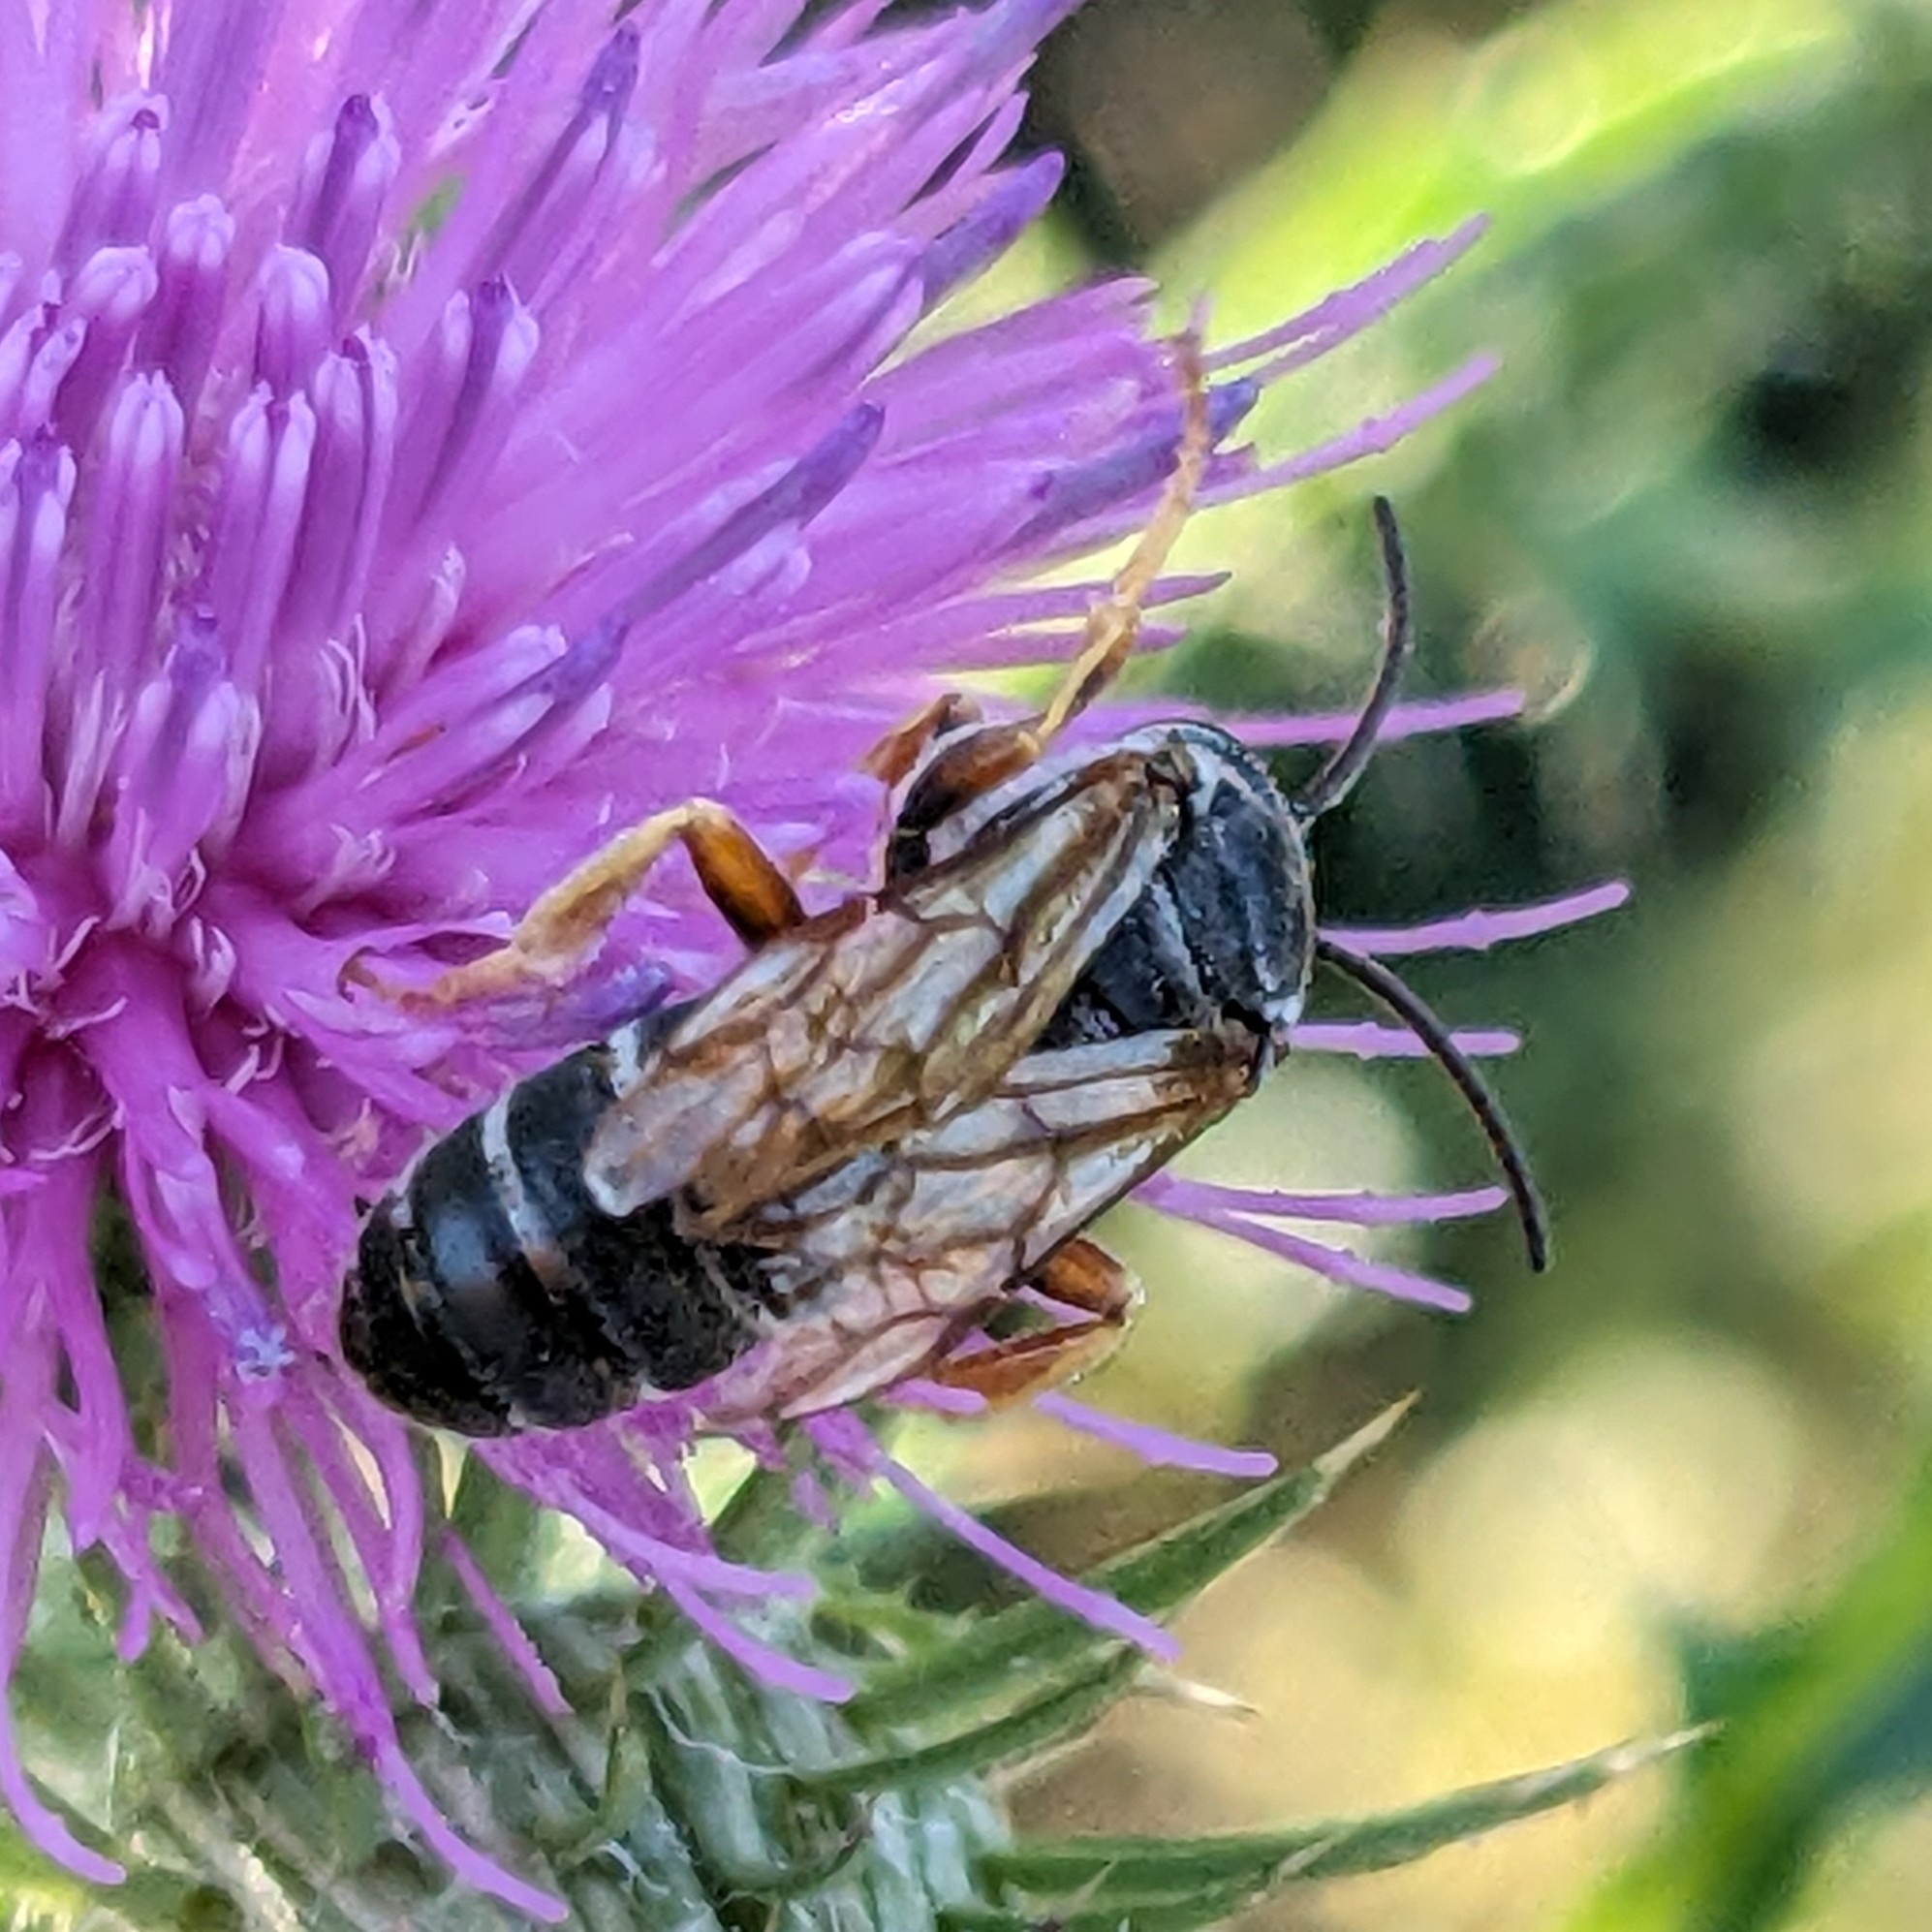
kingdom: Animalia
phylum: Arthropoda
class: Insecta
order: Hymenoptera
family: Halictidae
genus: Halictus
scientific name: Halictus parallelus
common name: Parallel-striped sweat bee
